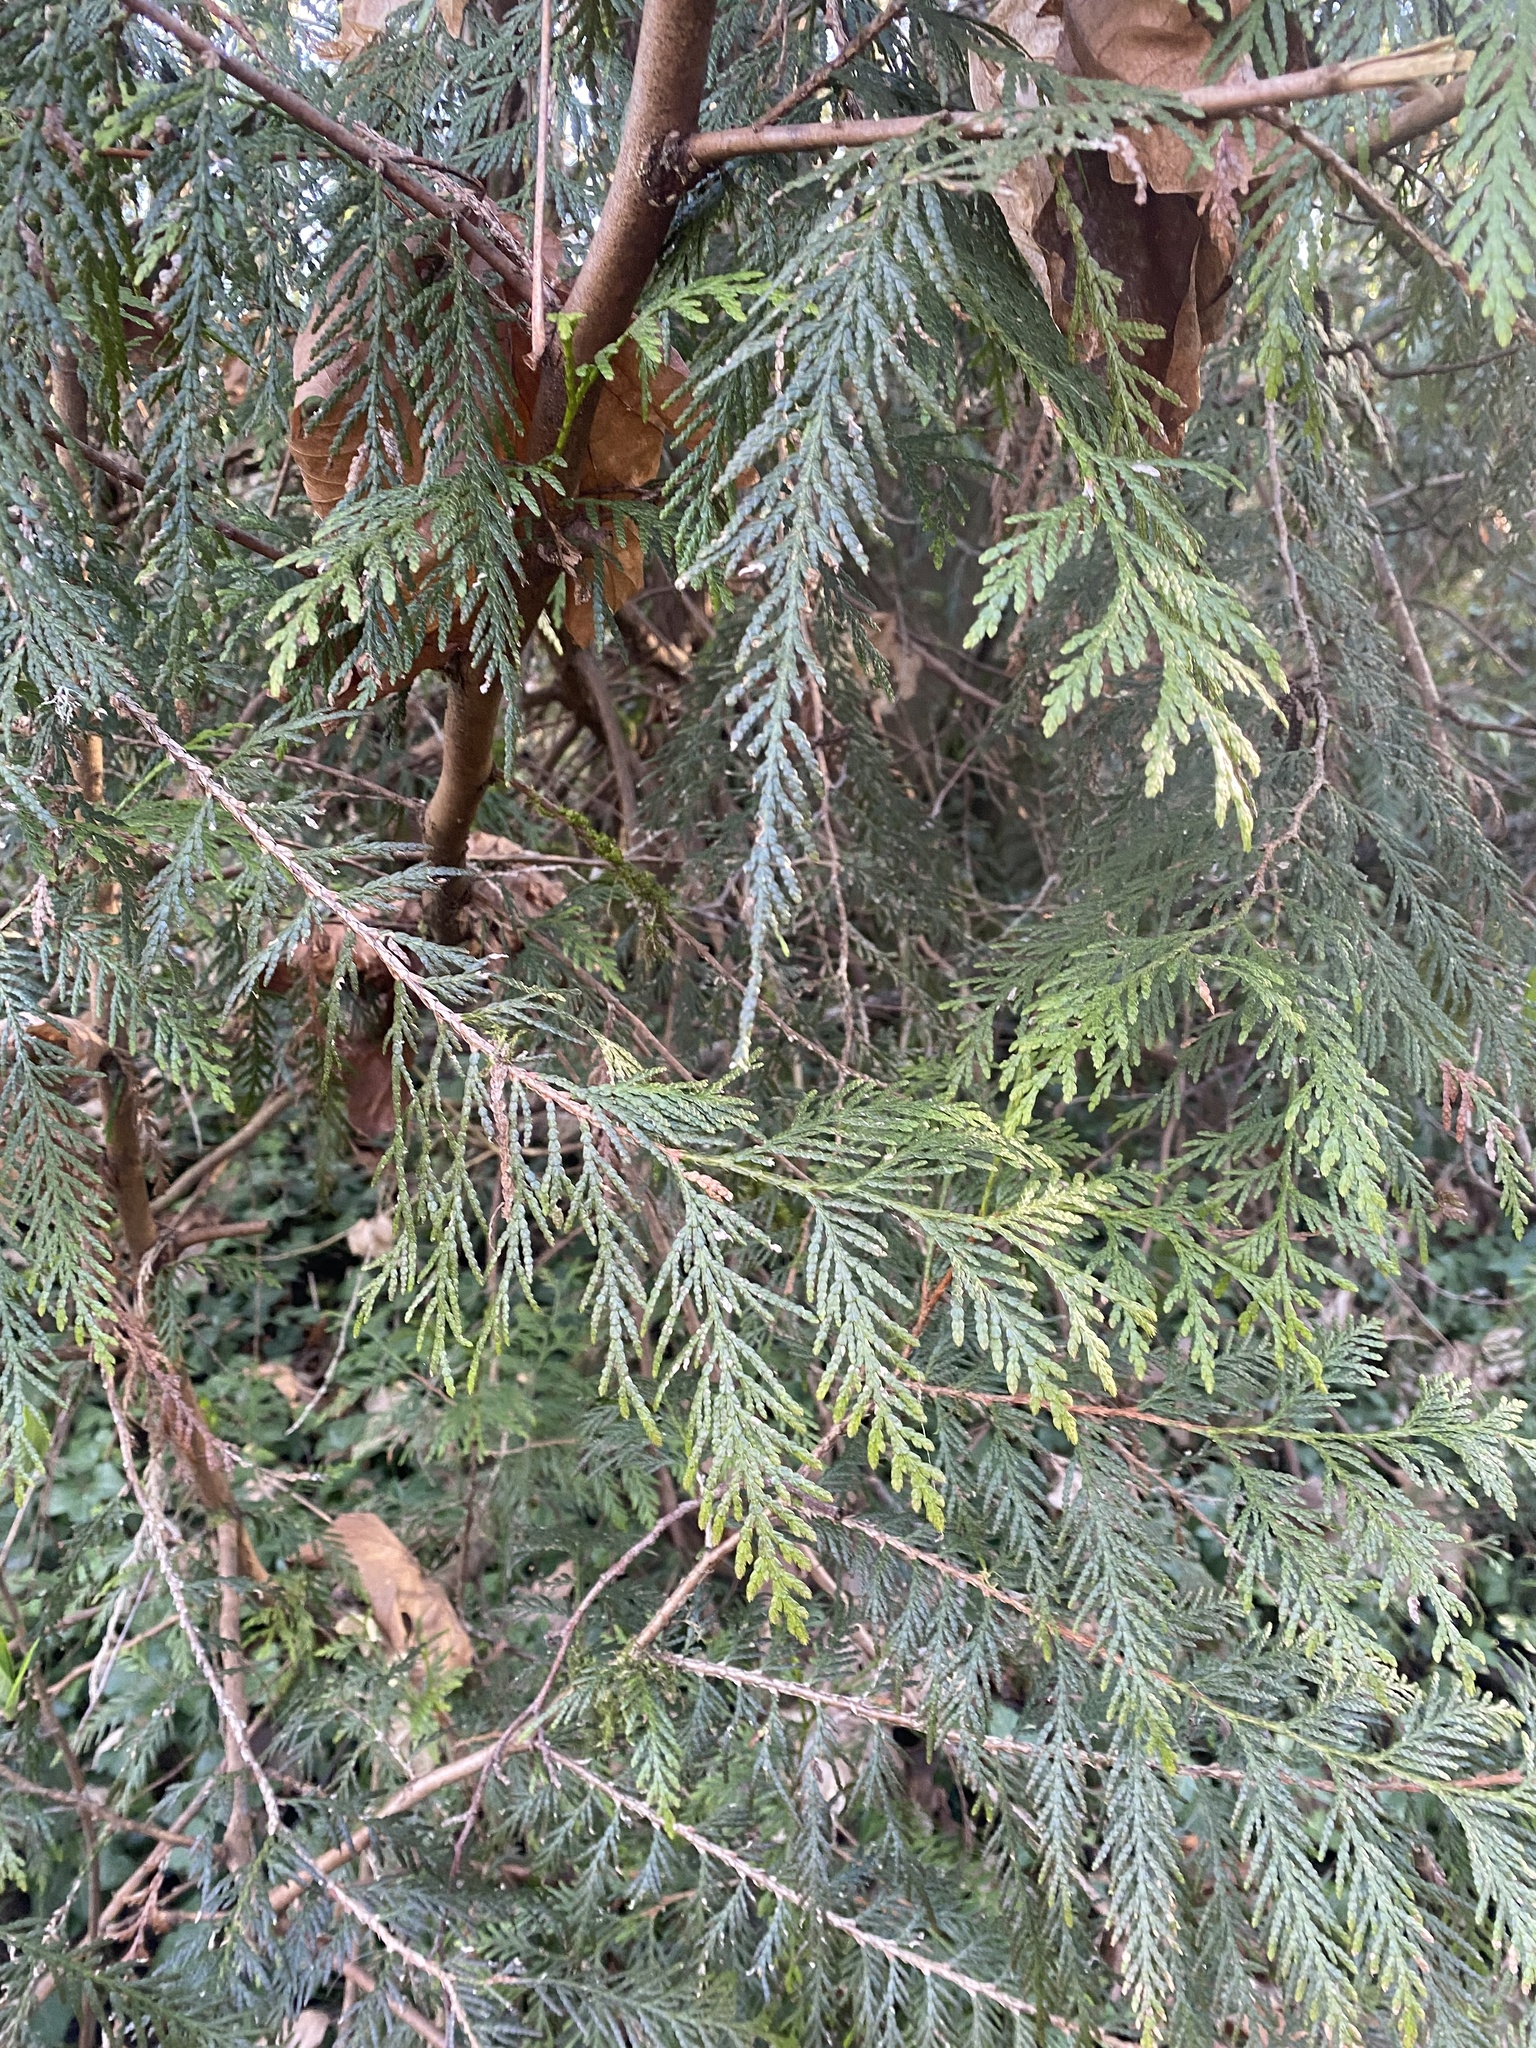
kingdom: Plantae
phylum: Tracheophyta
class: Pinopsida
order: Pinales
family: Cupressaceae
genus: Thuja
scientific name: Thuja plicata
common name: Western red-cedar
